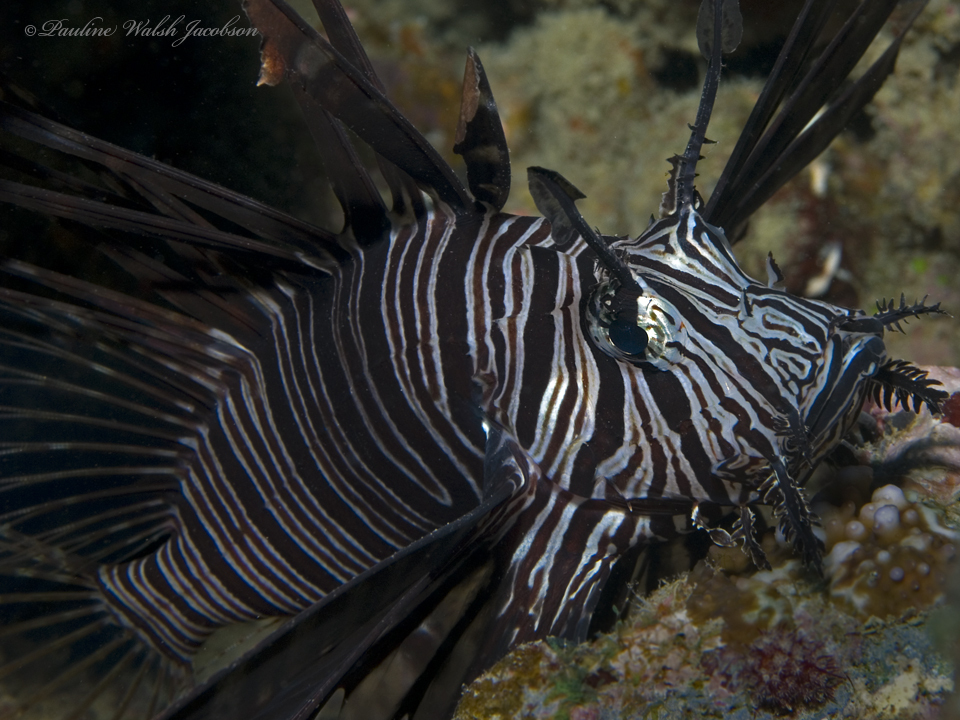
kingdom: Animalia
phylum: Chordata
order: Scorpaeniformes
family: Scorpaenidae
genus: Pterois
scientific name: Pterois volitans
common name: Lionfish
